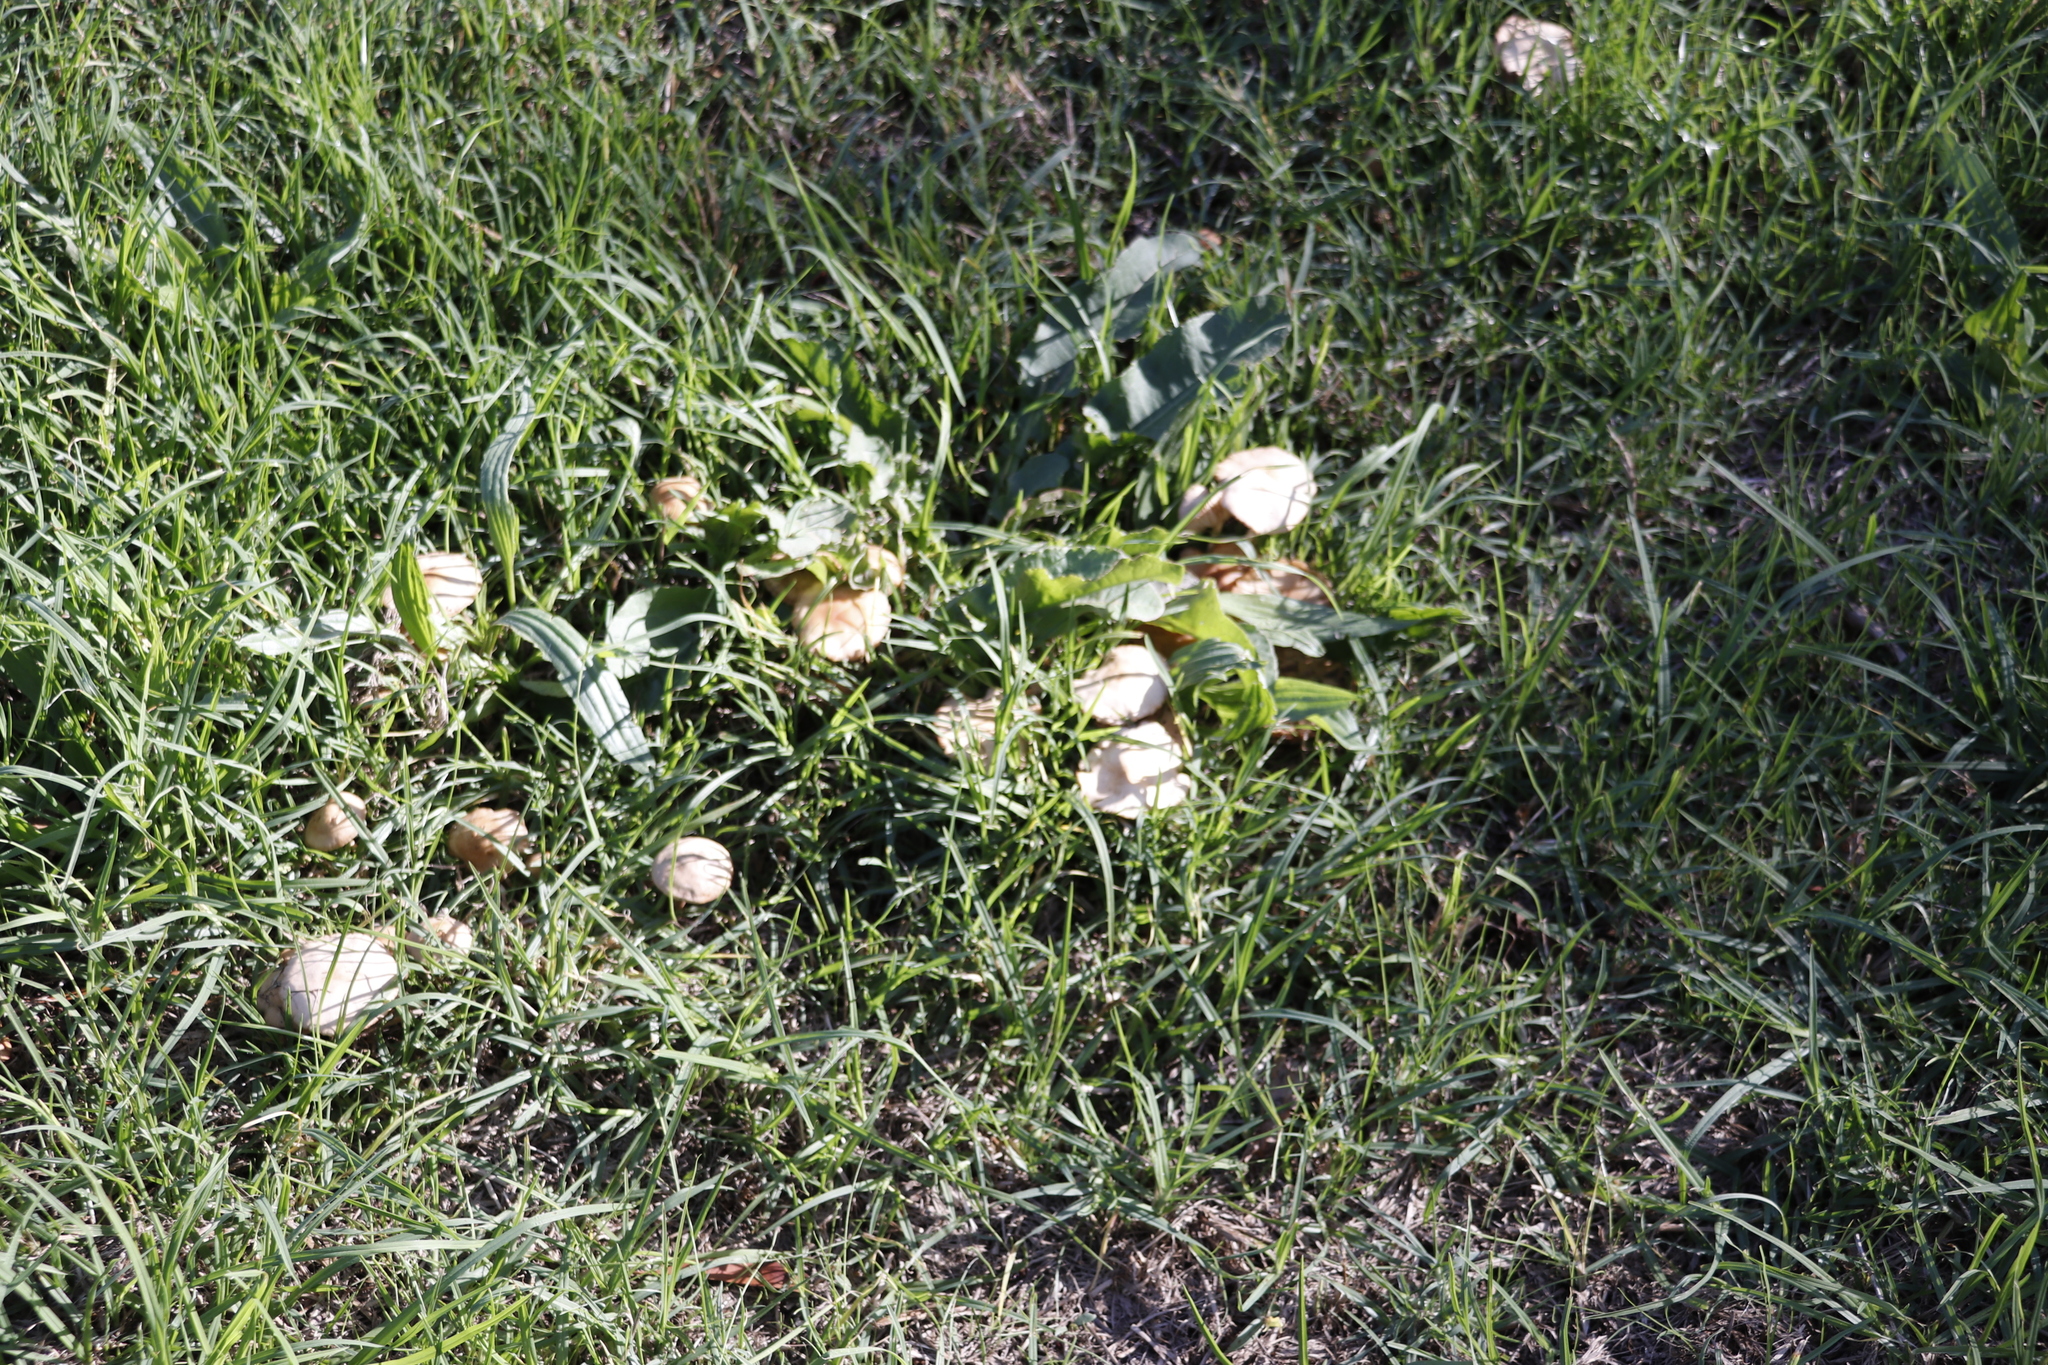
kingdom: Fungi
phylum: Basidiomycota
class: Agaricomycetes
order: Agaricales
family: Marasmiaceae
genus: Marasmius
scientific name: Marasmius oreades
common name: Fairy ring champignon
